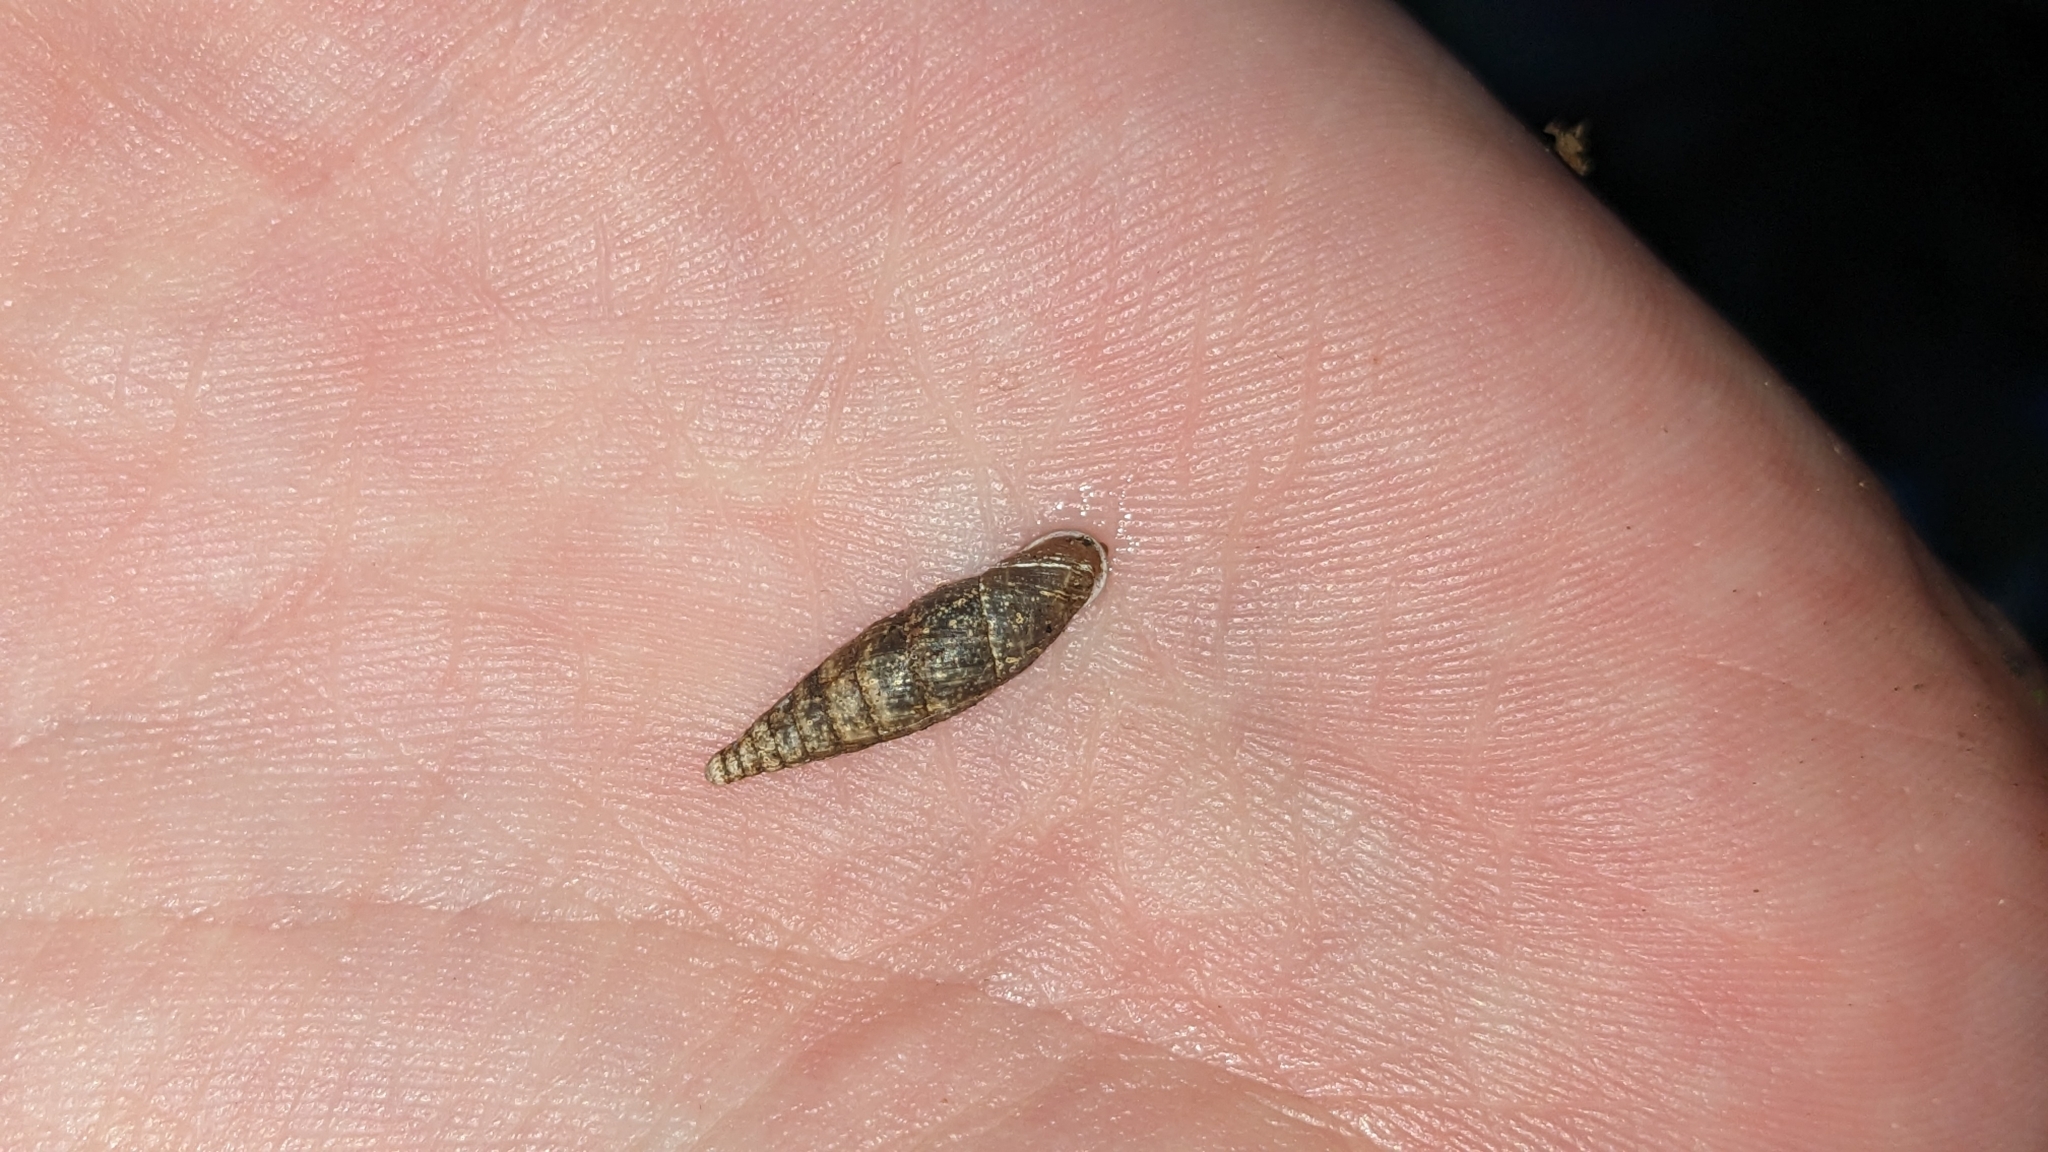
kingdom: Animalia
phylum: Mollusca
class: Gastropoda
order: Stylommatophora
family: Clausiliidae
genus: Cochlodina
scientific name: Cochlodina laminata
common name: Plaited door snail
